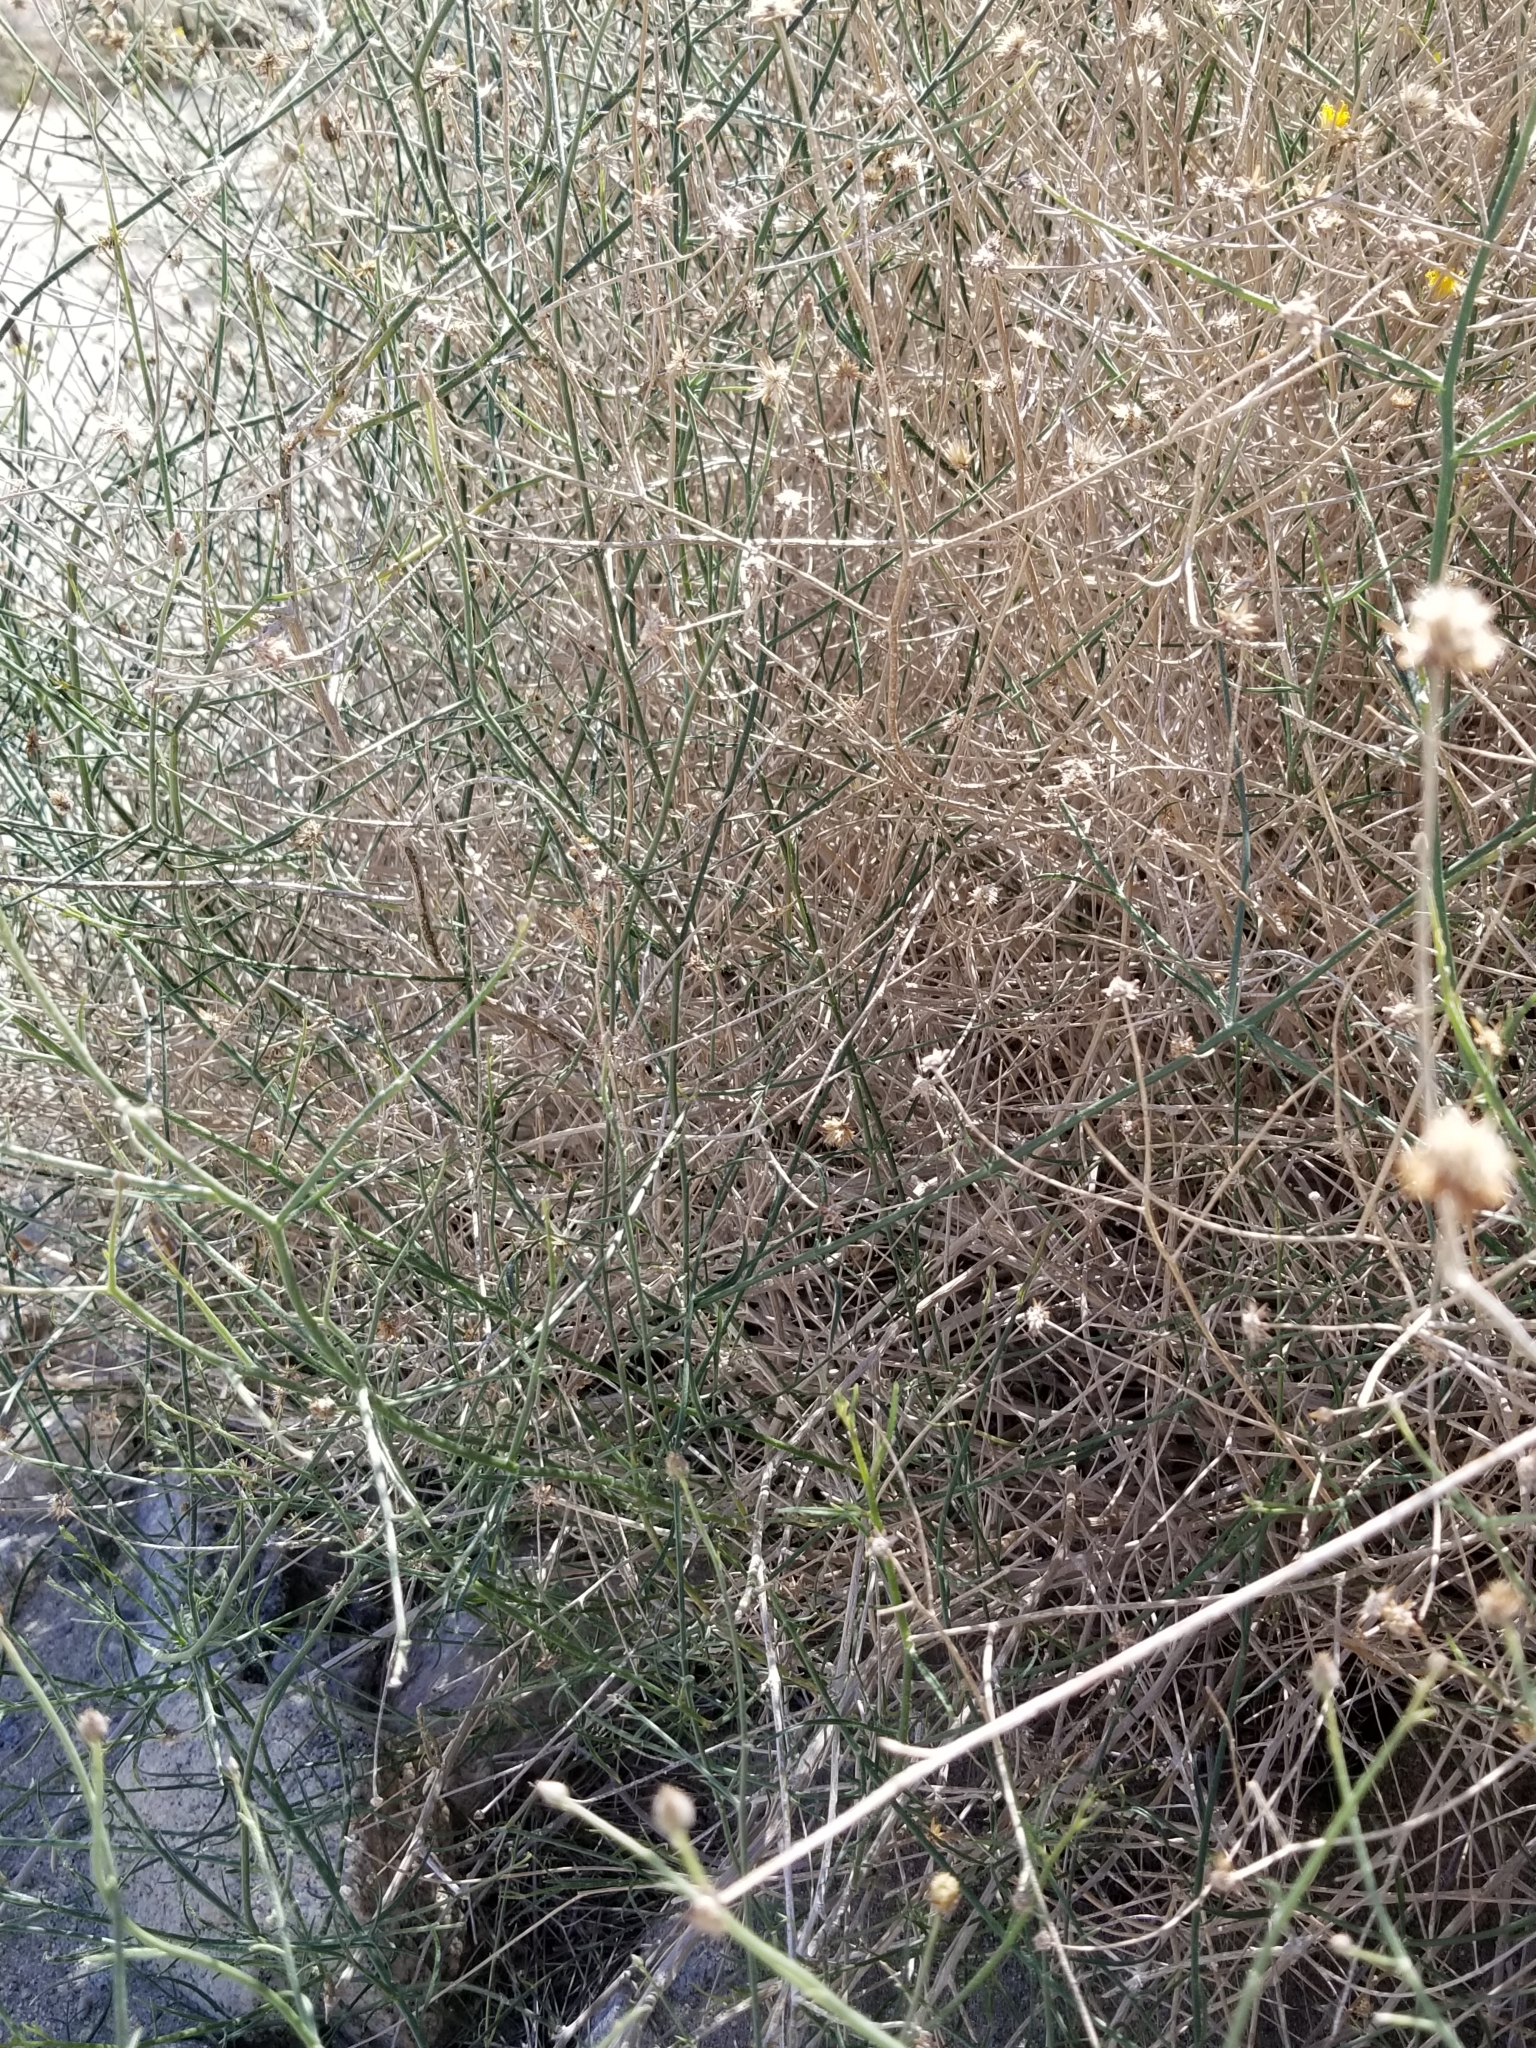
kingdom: Plantae
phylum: Tracheophyta
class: Magnoliopsida
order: Asterales
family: Asteraceae
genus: Bebbia
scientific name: Bebbia juncea
